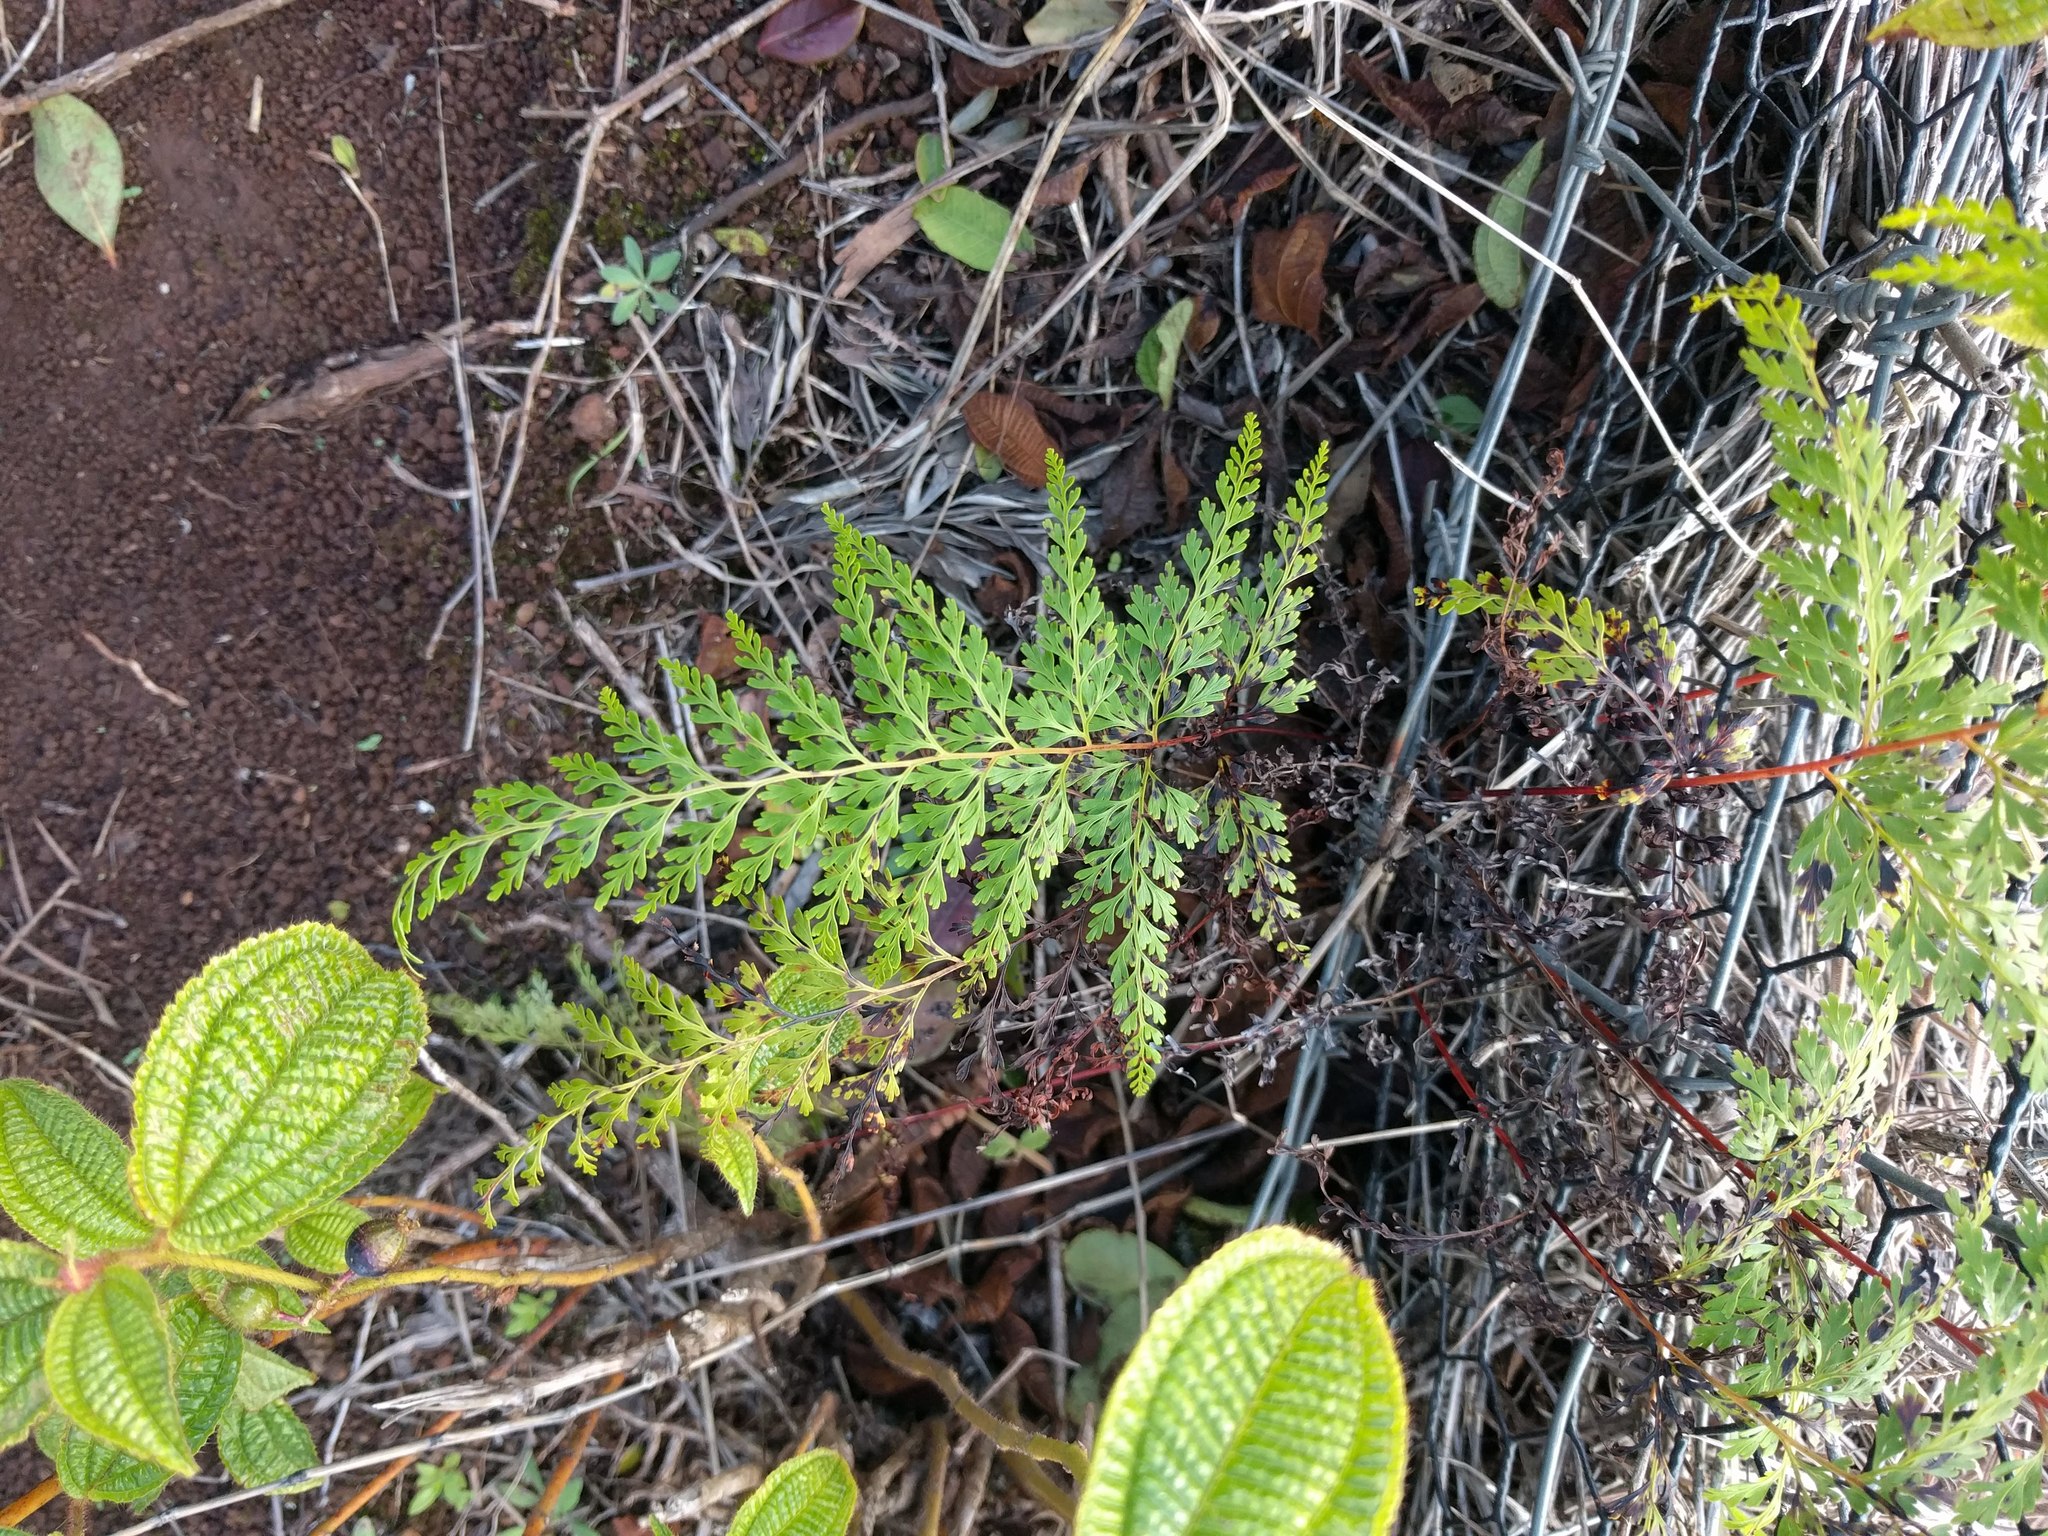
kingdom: Plantae
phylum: Tracheophyta
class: Polypodiopsida
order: Polypodiales
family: Lindsaeaceae
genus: Odontosoria
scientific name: Odontosoria chinensis
